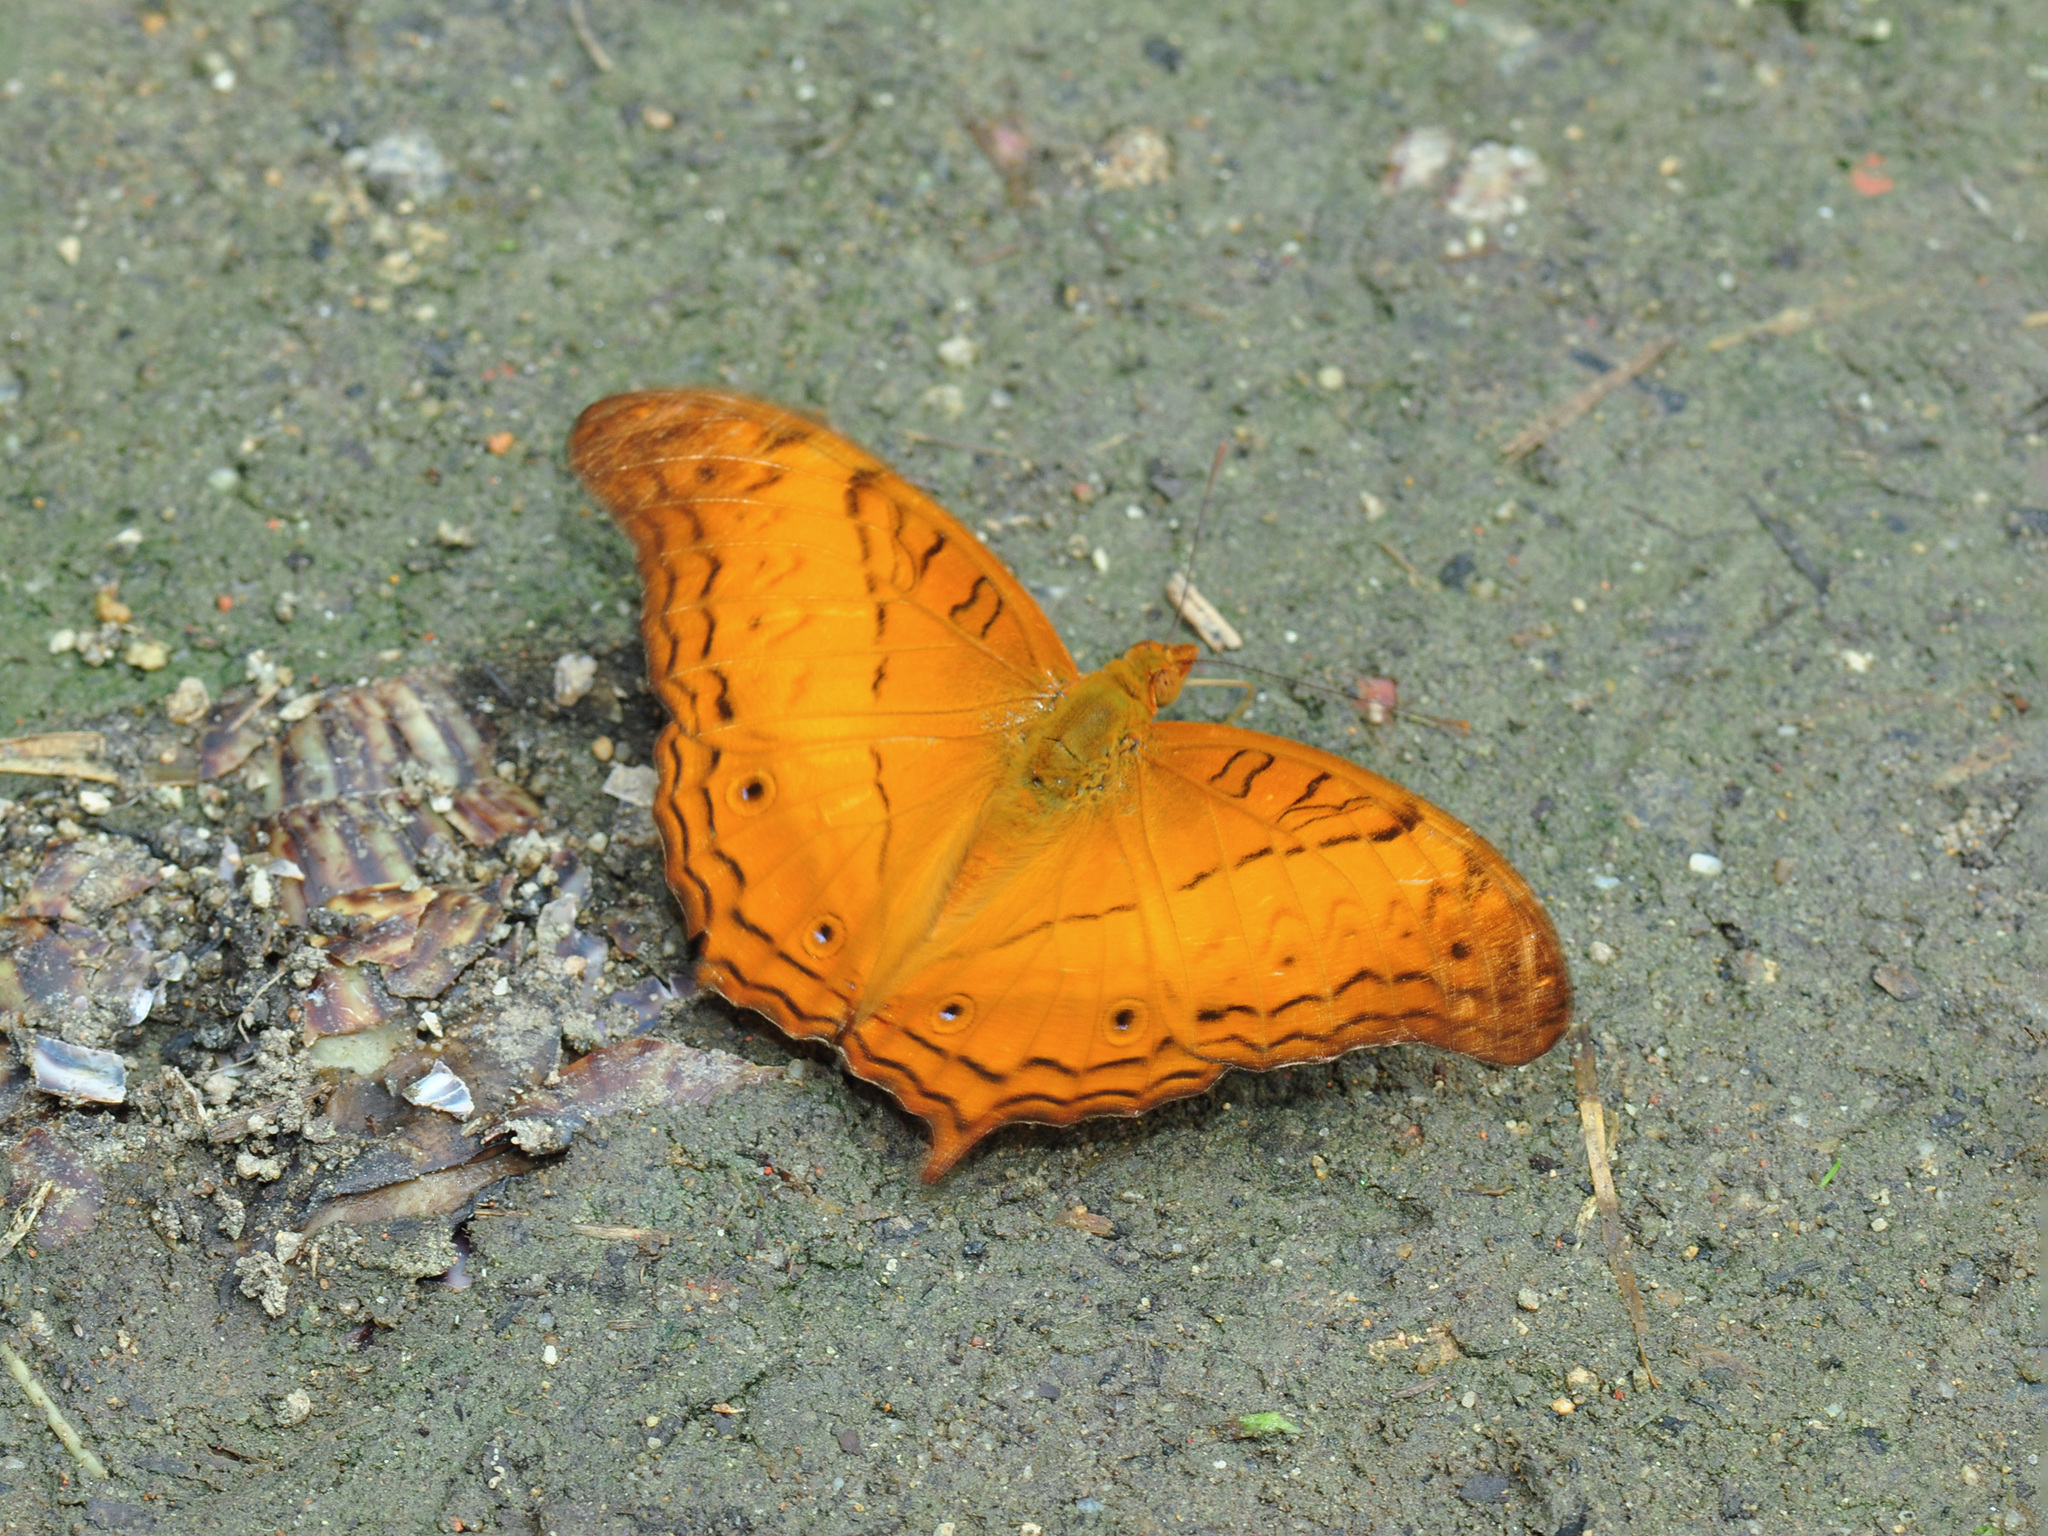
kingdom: Animalia
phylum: Arthropoda
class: Insecta
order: Lepidoptera
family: Nymphalidae
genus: Vindula
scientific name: Vindula deione
